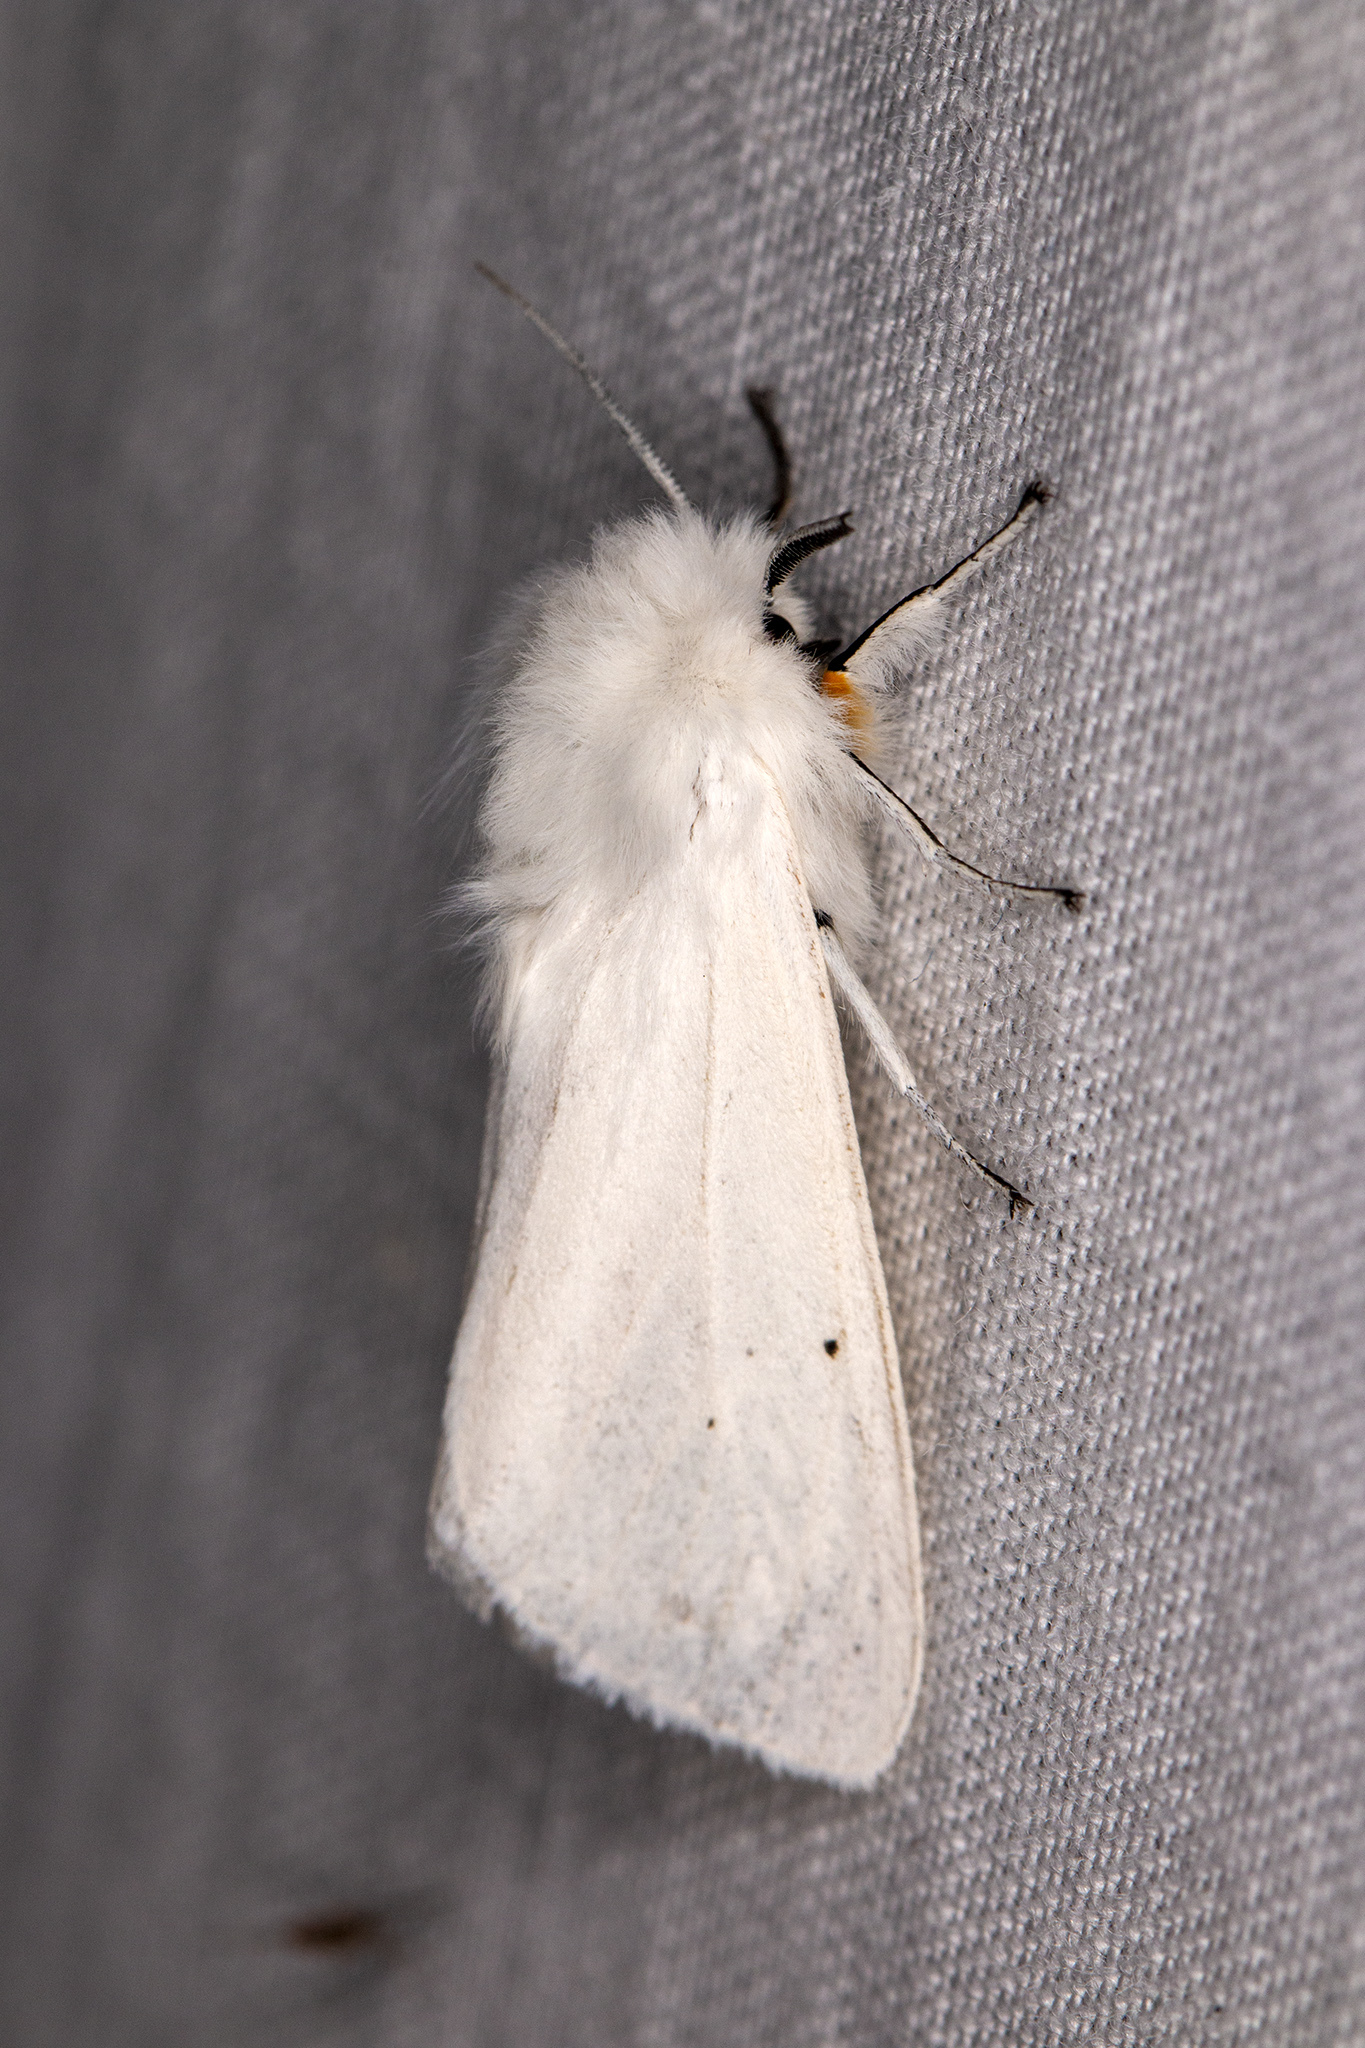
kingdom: Animalia
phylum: Arthropoda
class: Insecta
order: Lepidoptera
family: Erebidae
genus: Spilosoma
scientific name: Spilosoma urticae
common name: Water ermine
